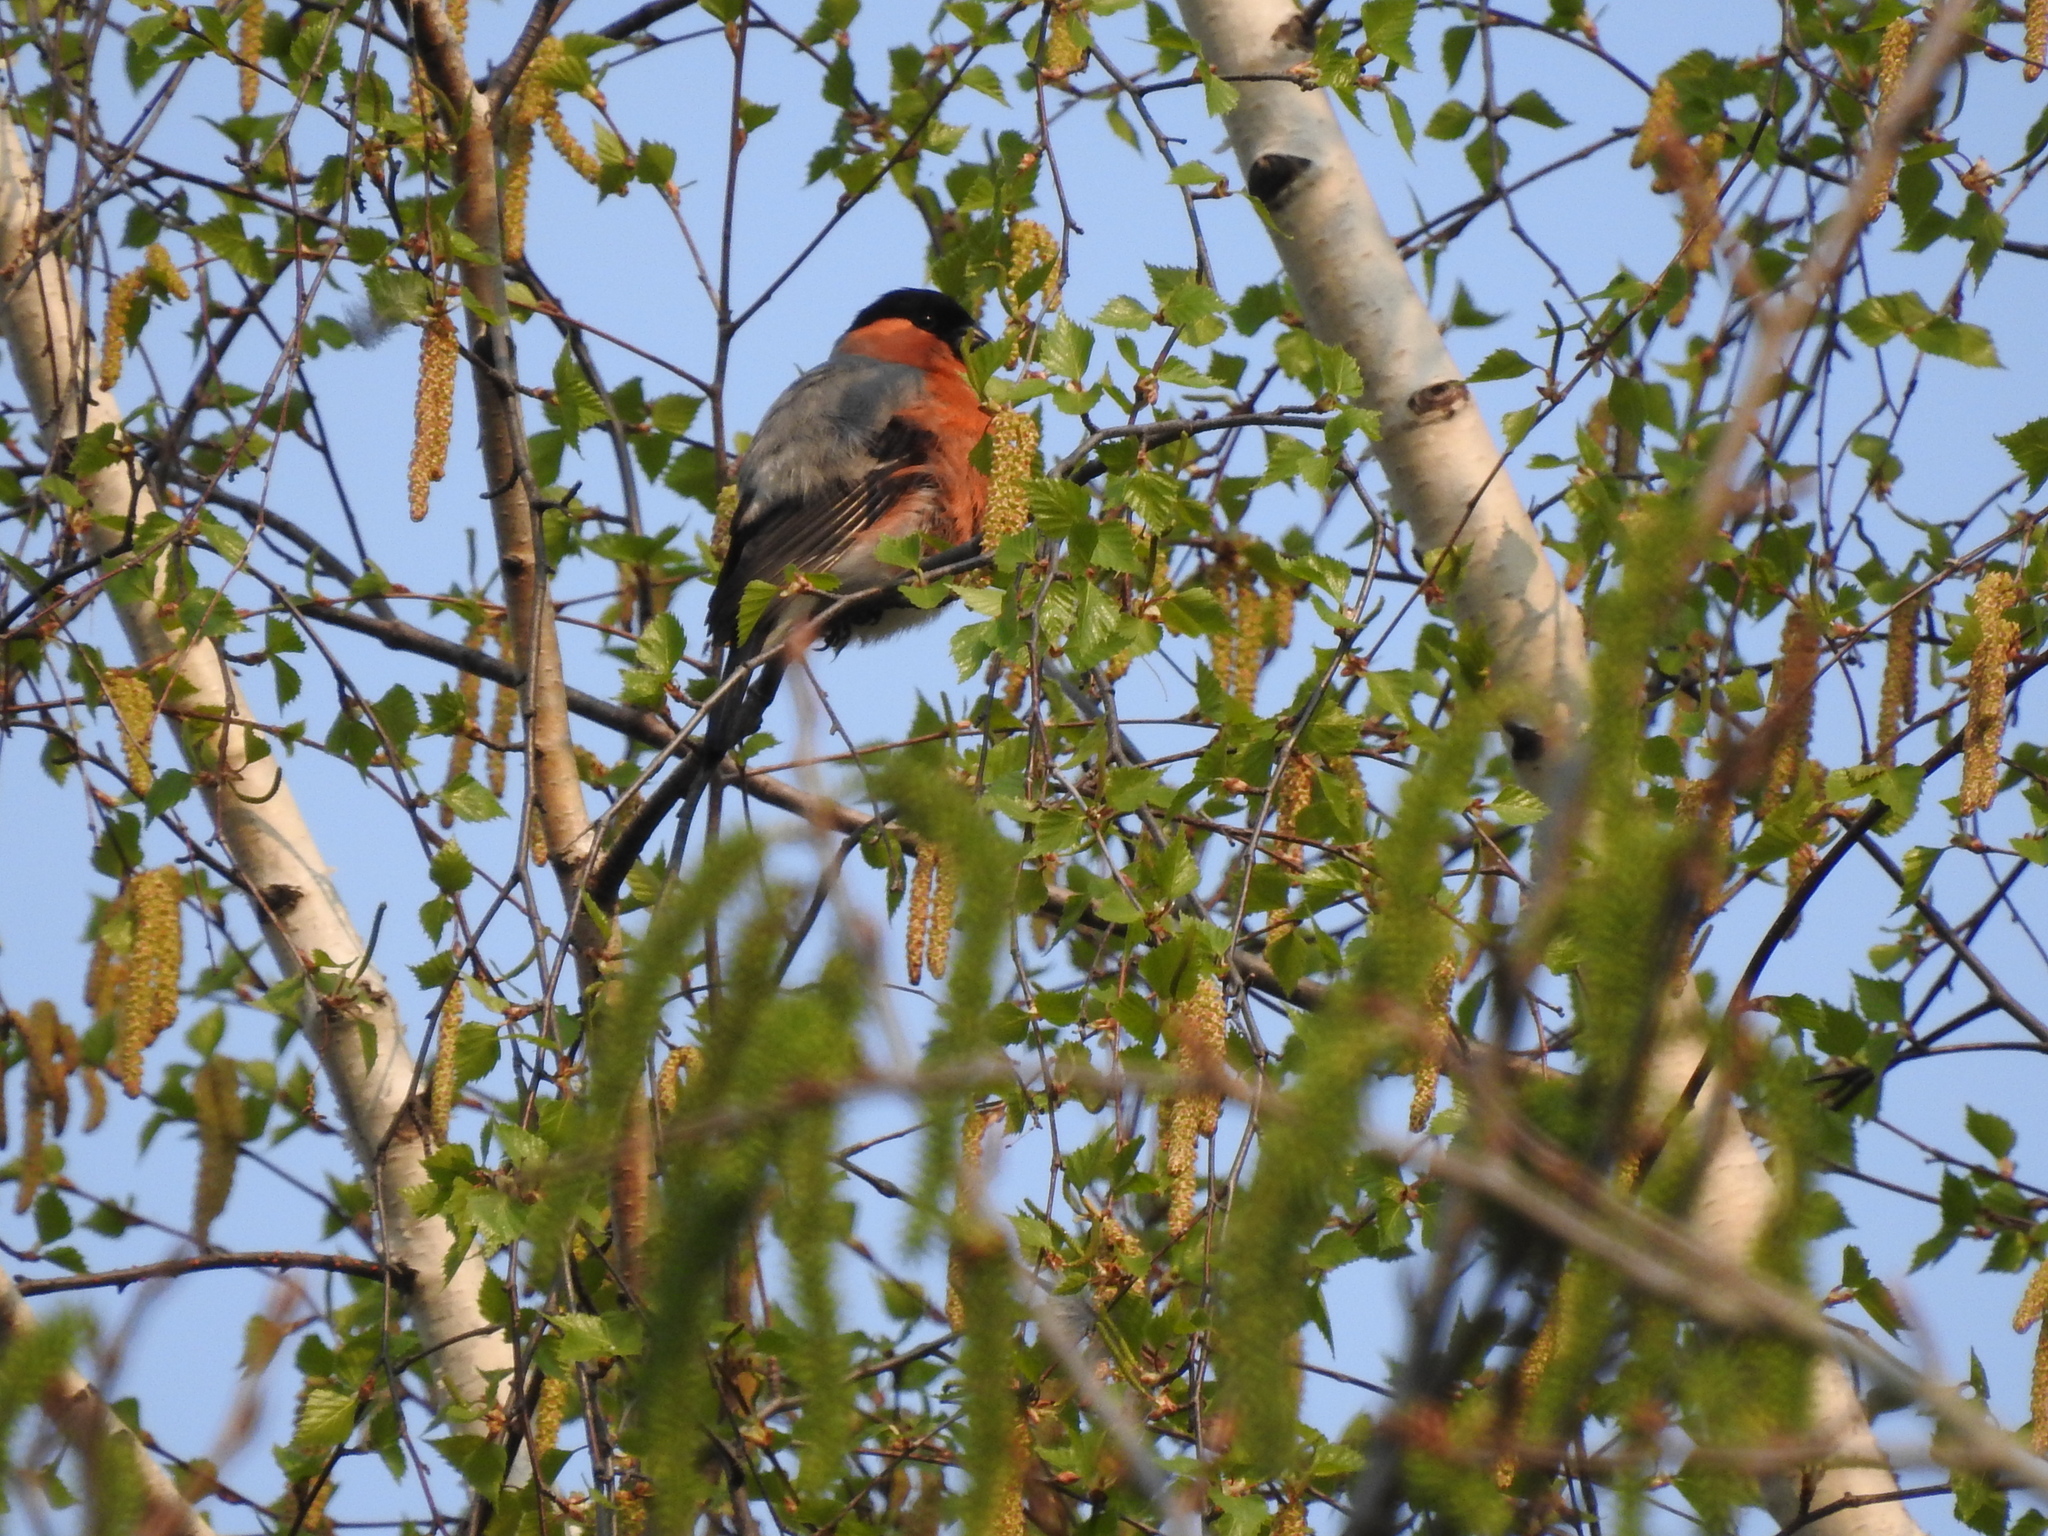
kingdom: Animalia
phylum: Chordata
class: Aves
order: Passeriformes
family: Fringillidae
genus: Pyrrhula
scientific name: Pyrrhula pyrrhula
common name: Eurasian bullfinch
